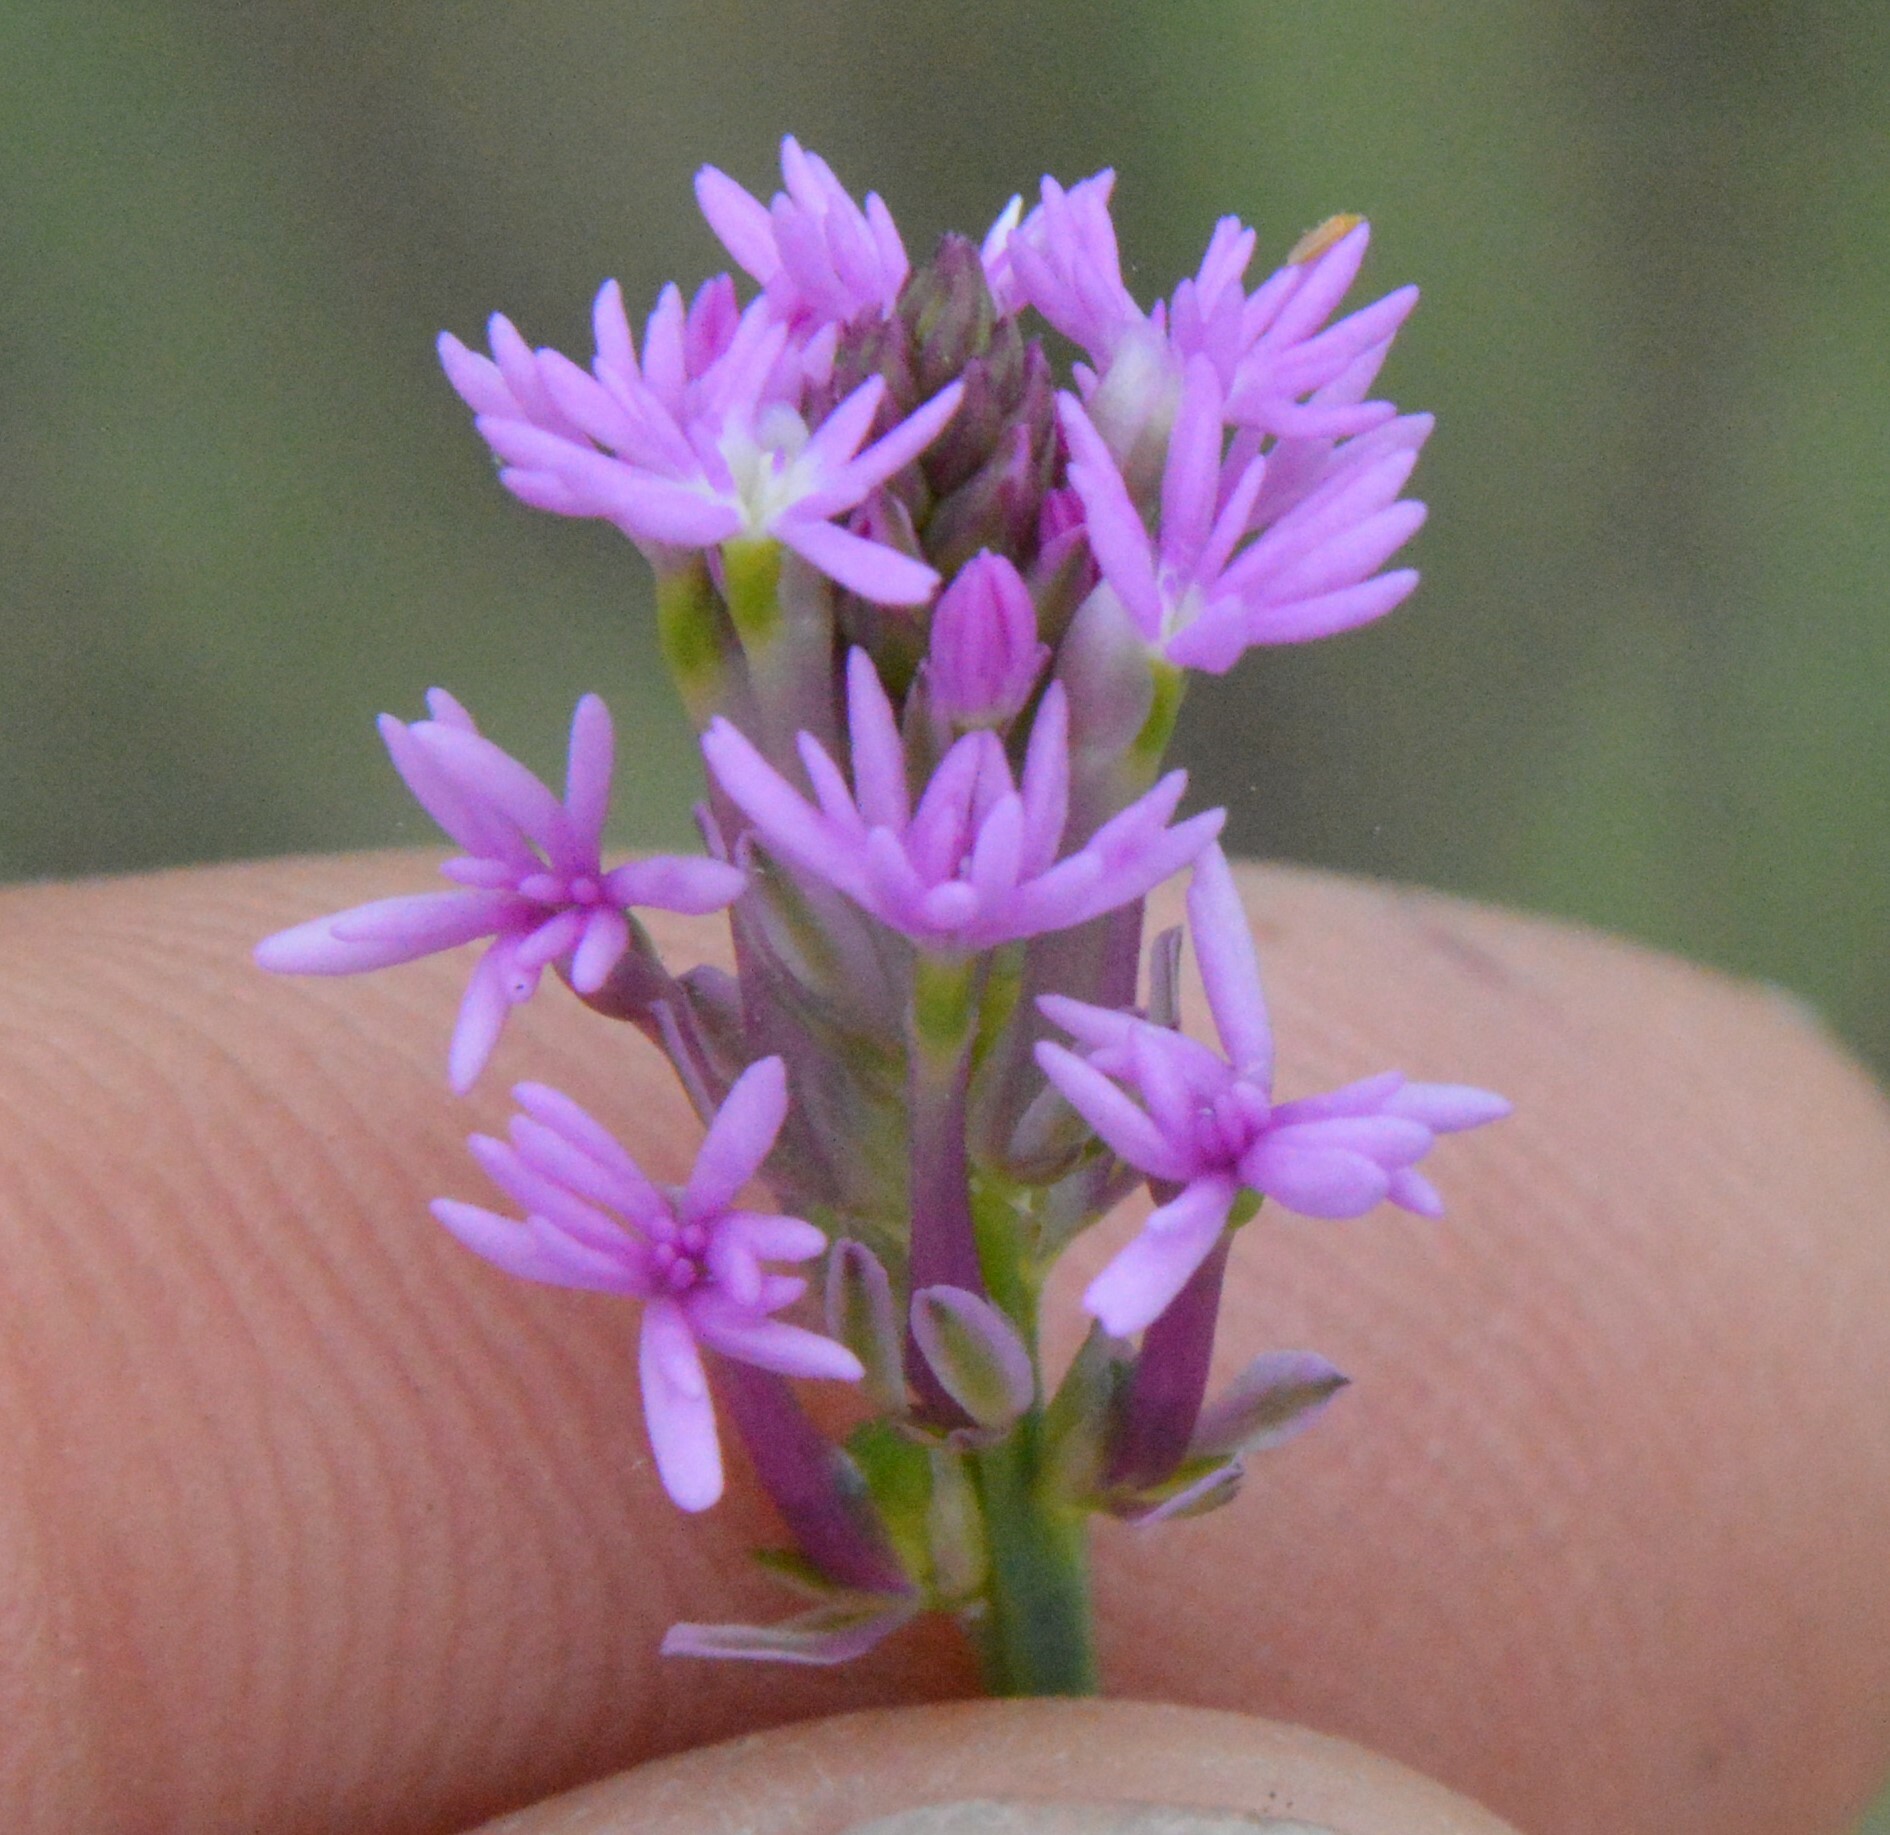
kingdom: Plantae
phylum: Tracheophyta
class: Magnoliopsida
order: Fabales
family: Polygalaceae
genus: Polygala
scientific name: Polygala incarnata
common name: Pink milkwort
